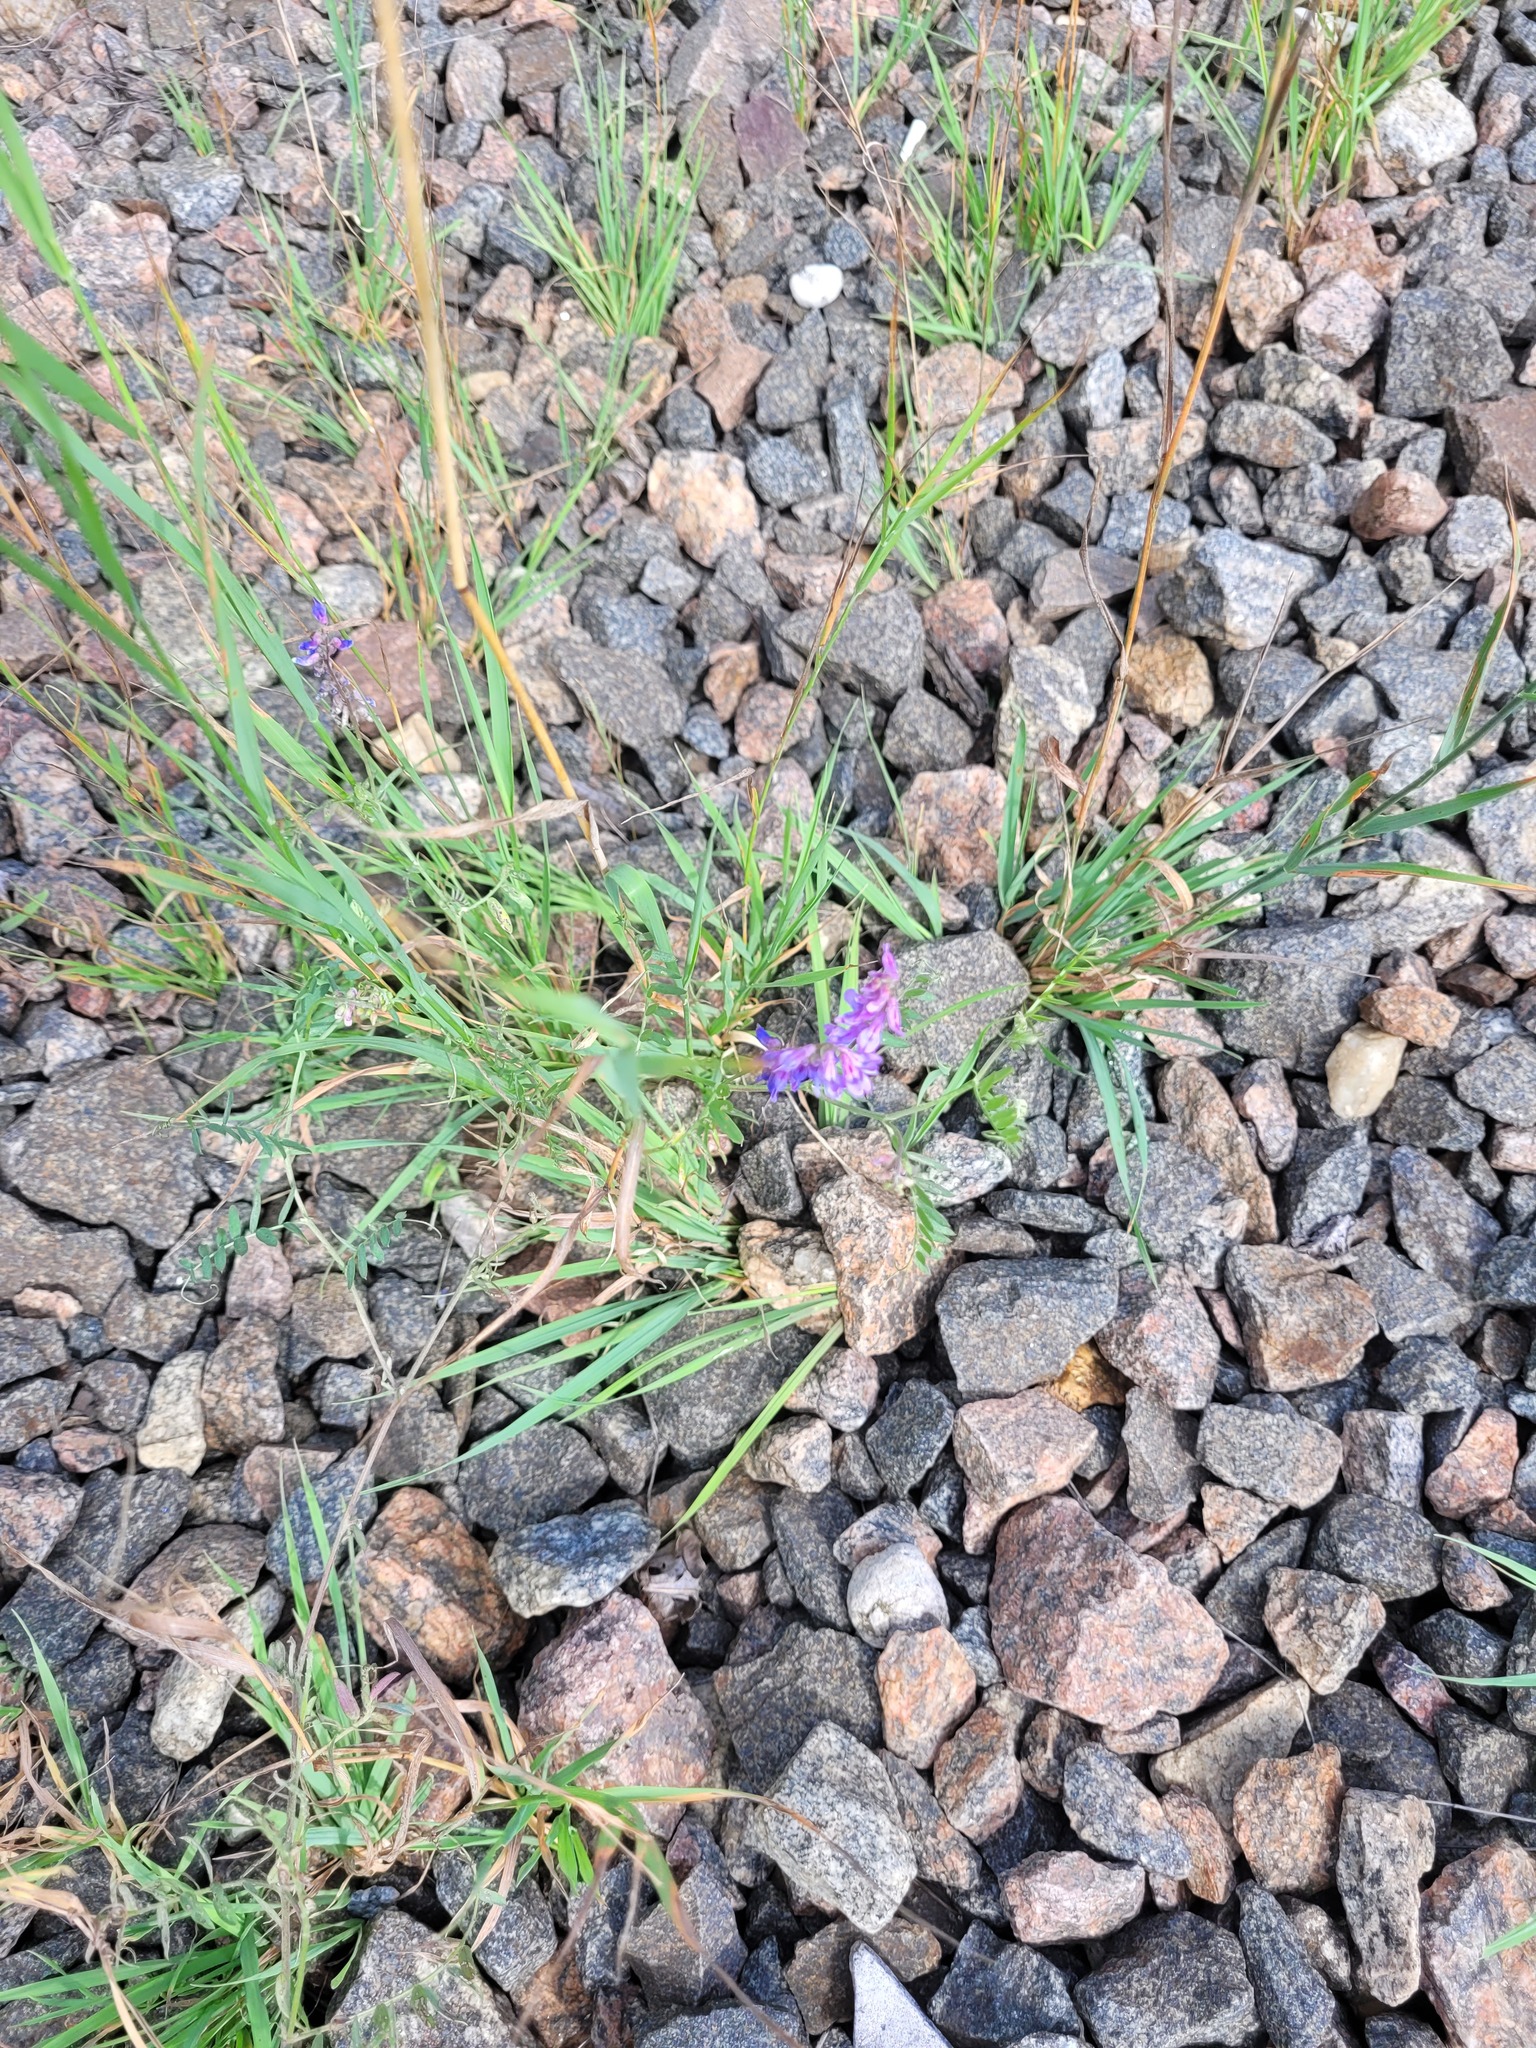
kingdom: Plantae
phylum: Tracheophyta
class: Magnoliopsida
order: Fabales
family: Fabaceae
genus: Vicia
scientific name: Vicia cracca
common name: Bird vetch
